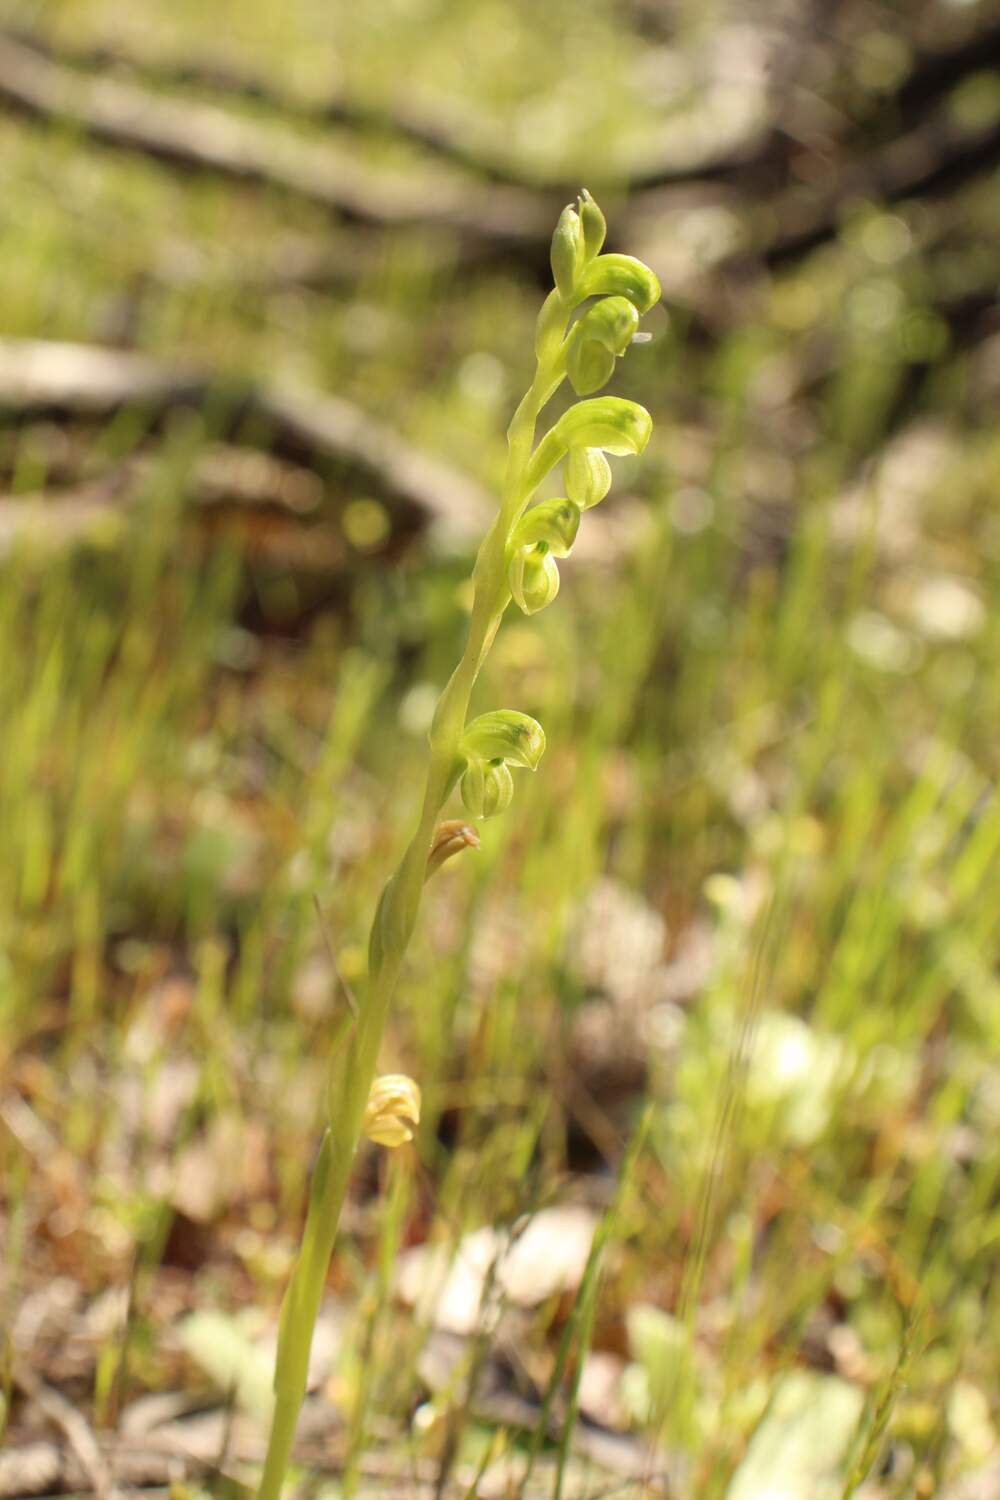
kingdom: Plantae
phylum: Tracheophyta
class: Liliopsida
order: Asparagales
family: Orchidaceae
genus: Pterostylis
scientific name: Pterostylis mutica
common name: Midget greenhood
